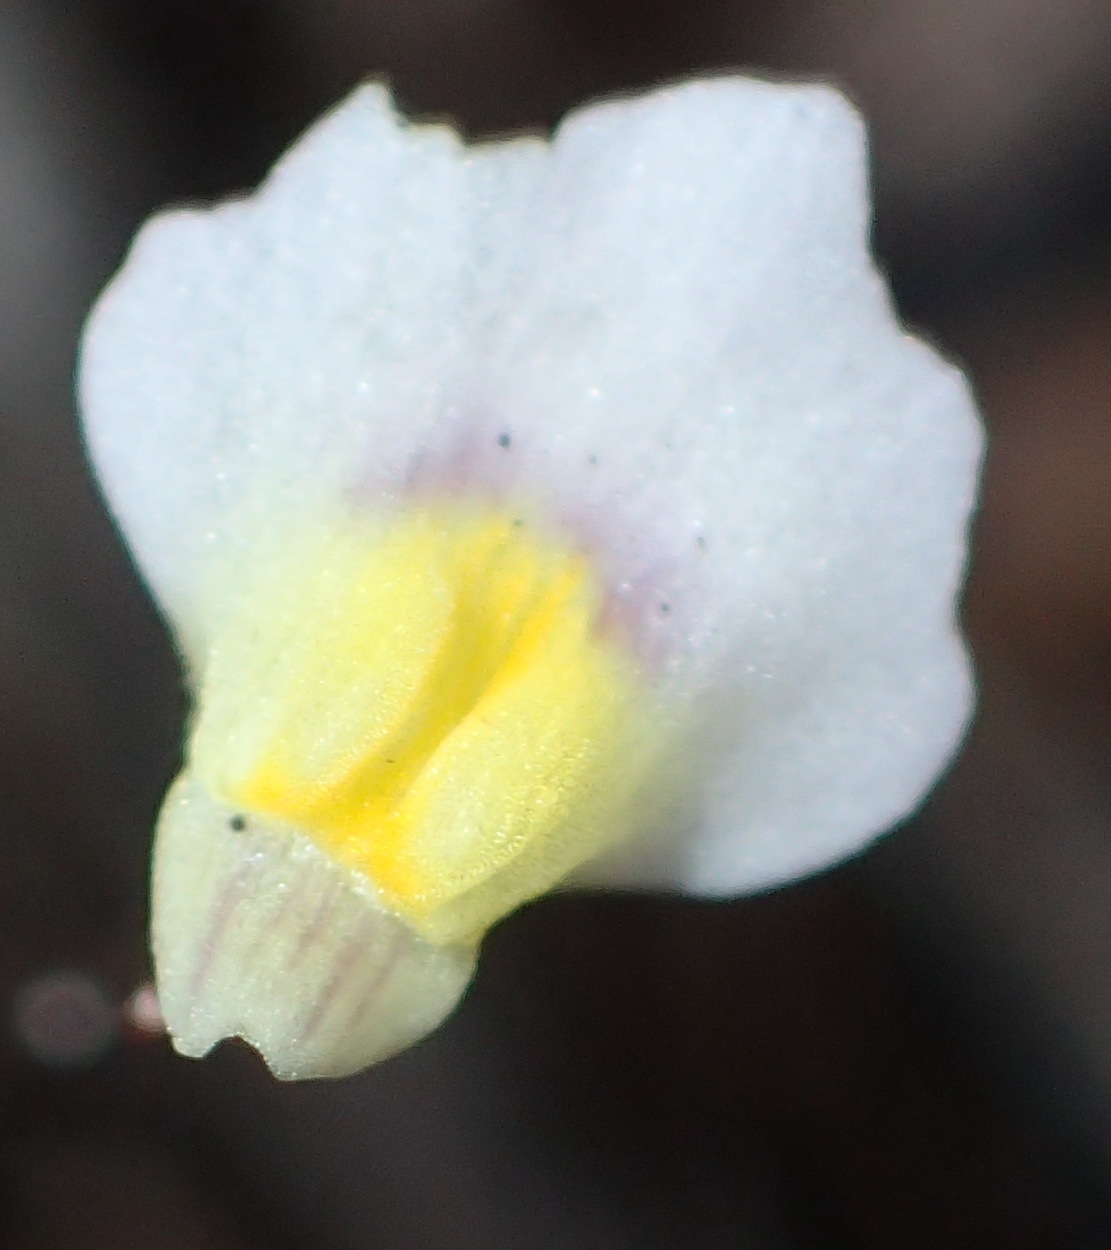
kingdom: Plantae
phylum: Tracheophyta
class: Magnoliopsida
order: Lamiales
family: Lentibulariaceae
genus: Utricularia
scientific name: Utricularia bisquamata
